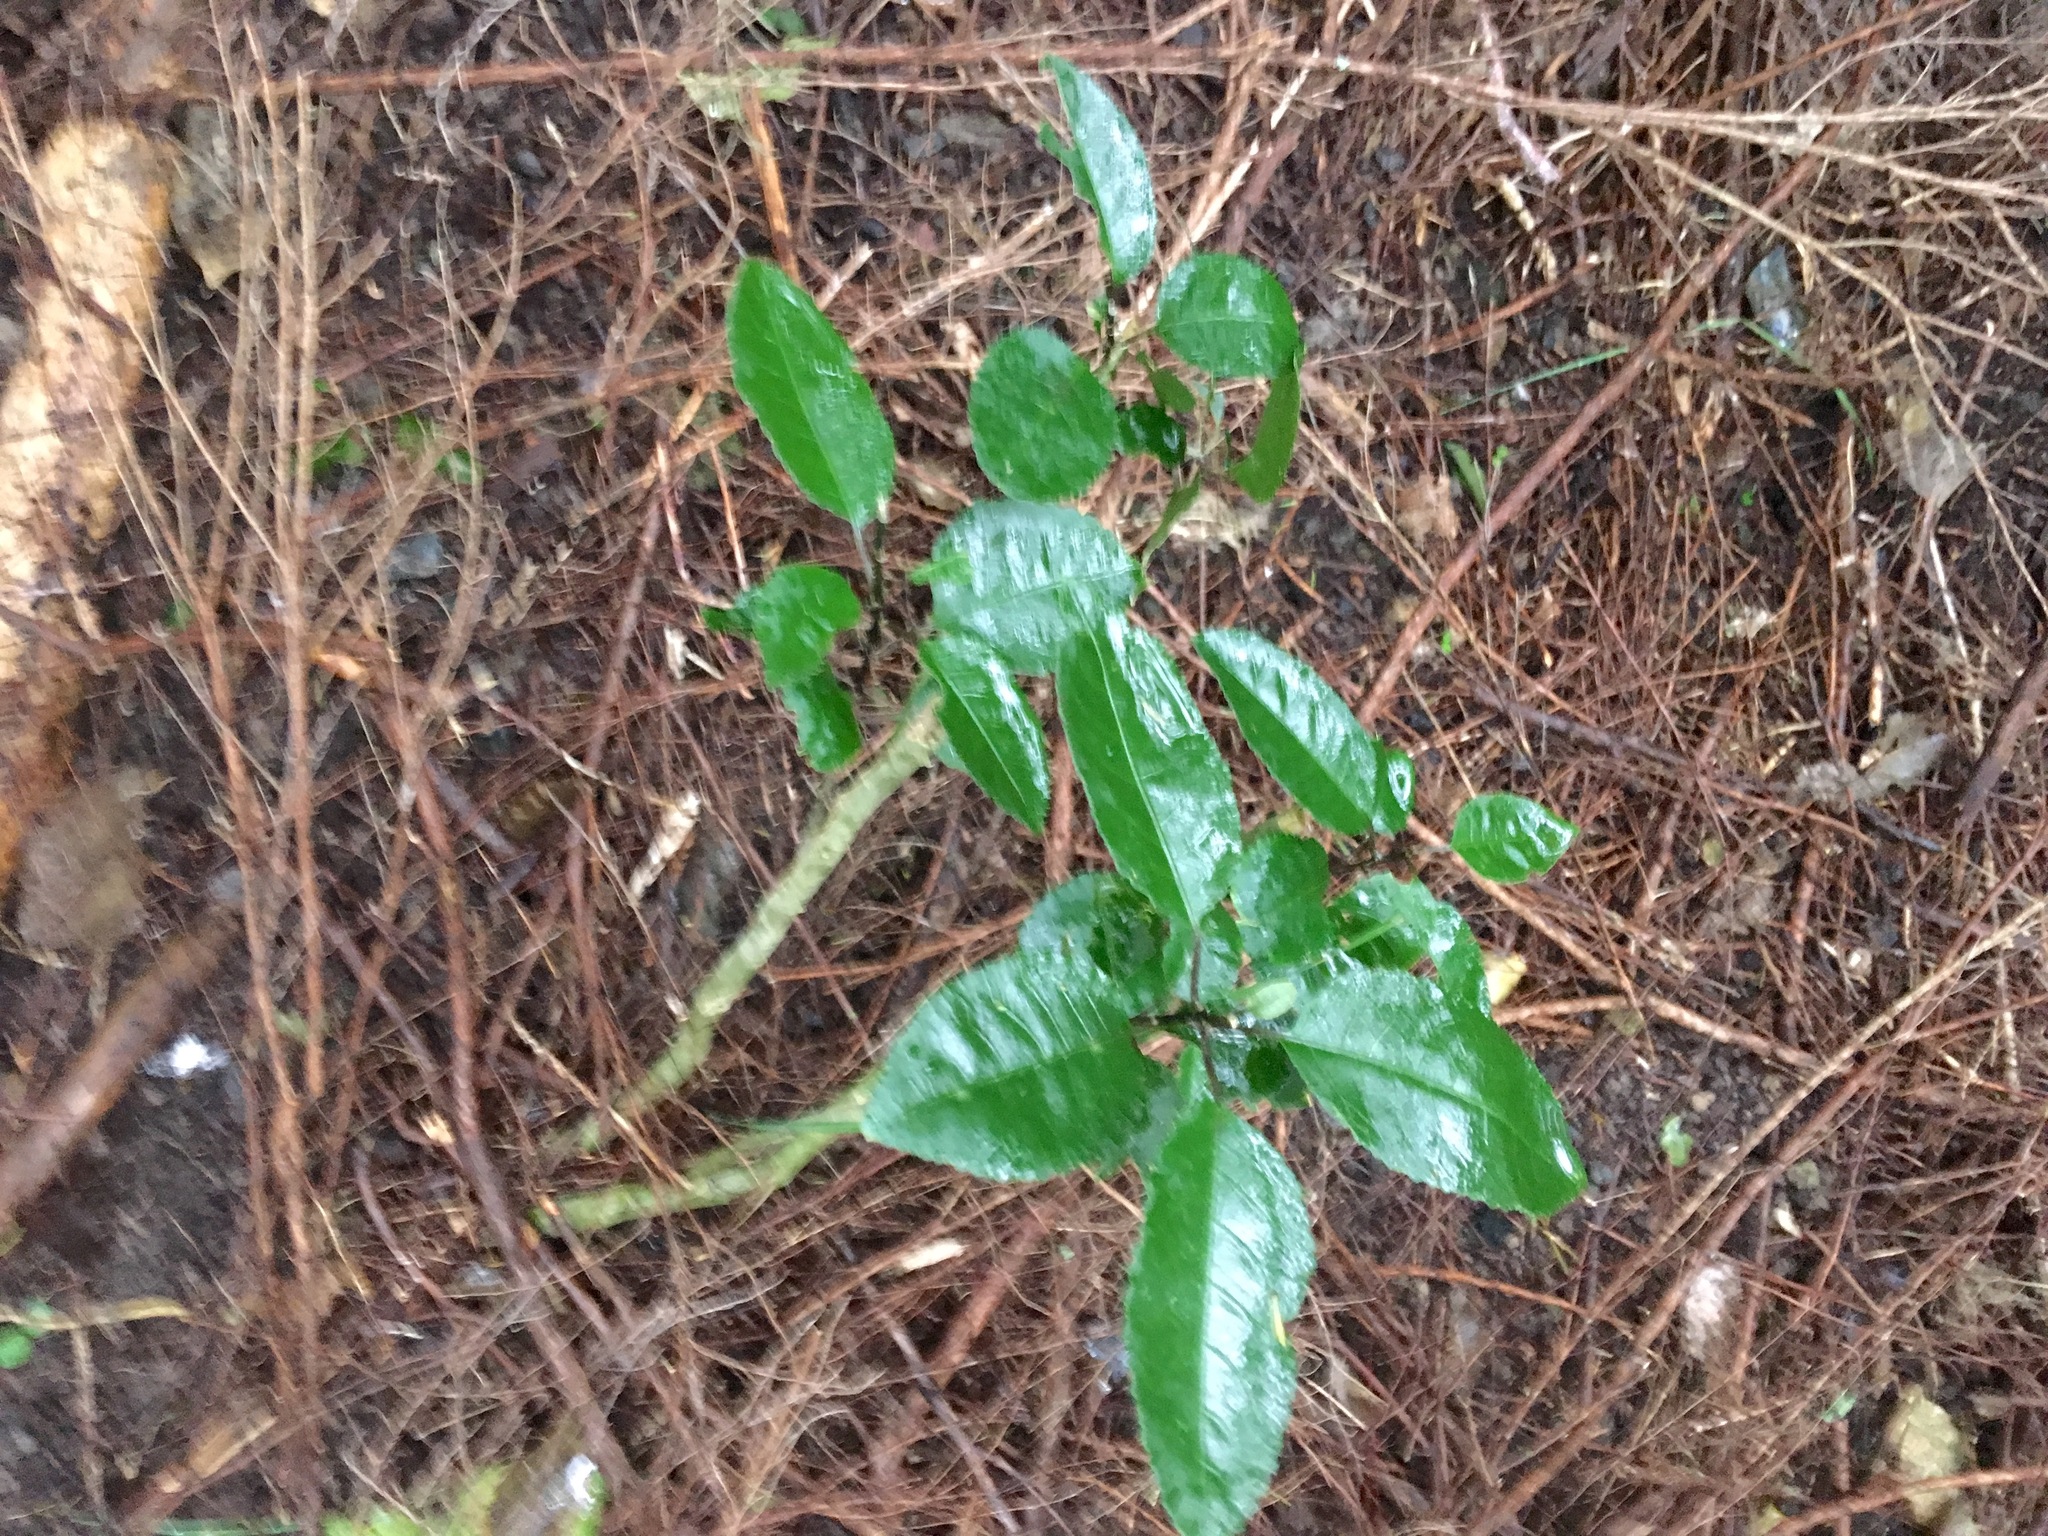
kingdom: Plantae
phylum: Tracheophyta
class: Magnoliopsida
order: Malpighiales
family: Violaceae
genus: Melicytus
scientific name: Melicytus ramiflorus
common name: Mahoe
